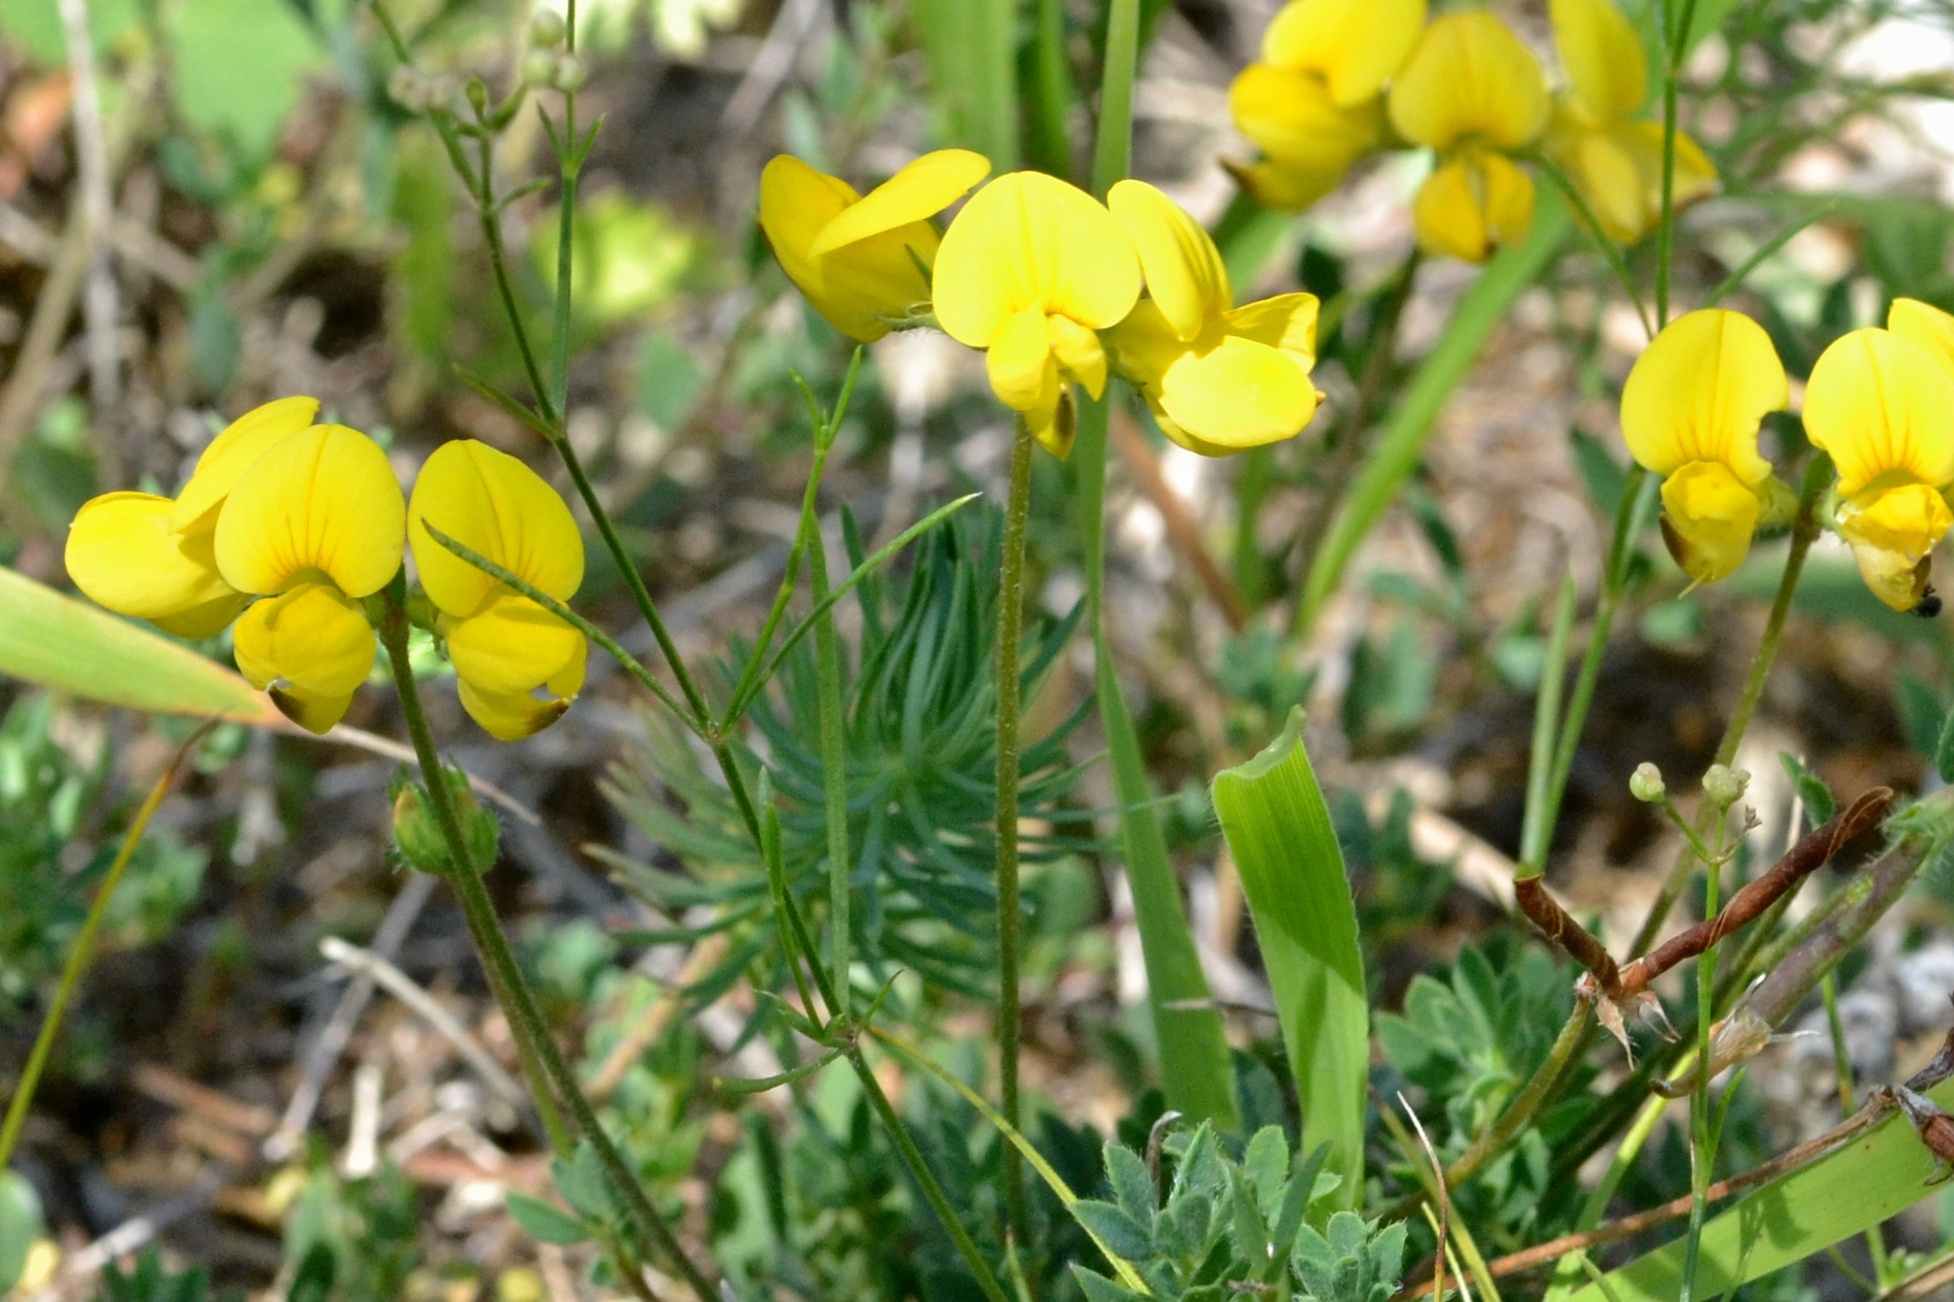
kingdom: Plantae
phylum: Tracheophyta
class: Magnoliopsida
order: Fabales
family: Fabaceae
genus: Lotus
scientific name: Lotus corniculatus
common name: Common bird's-foot-trefoil
